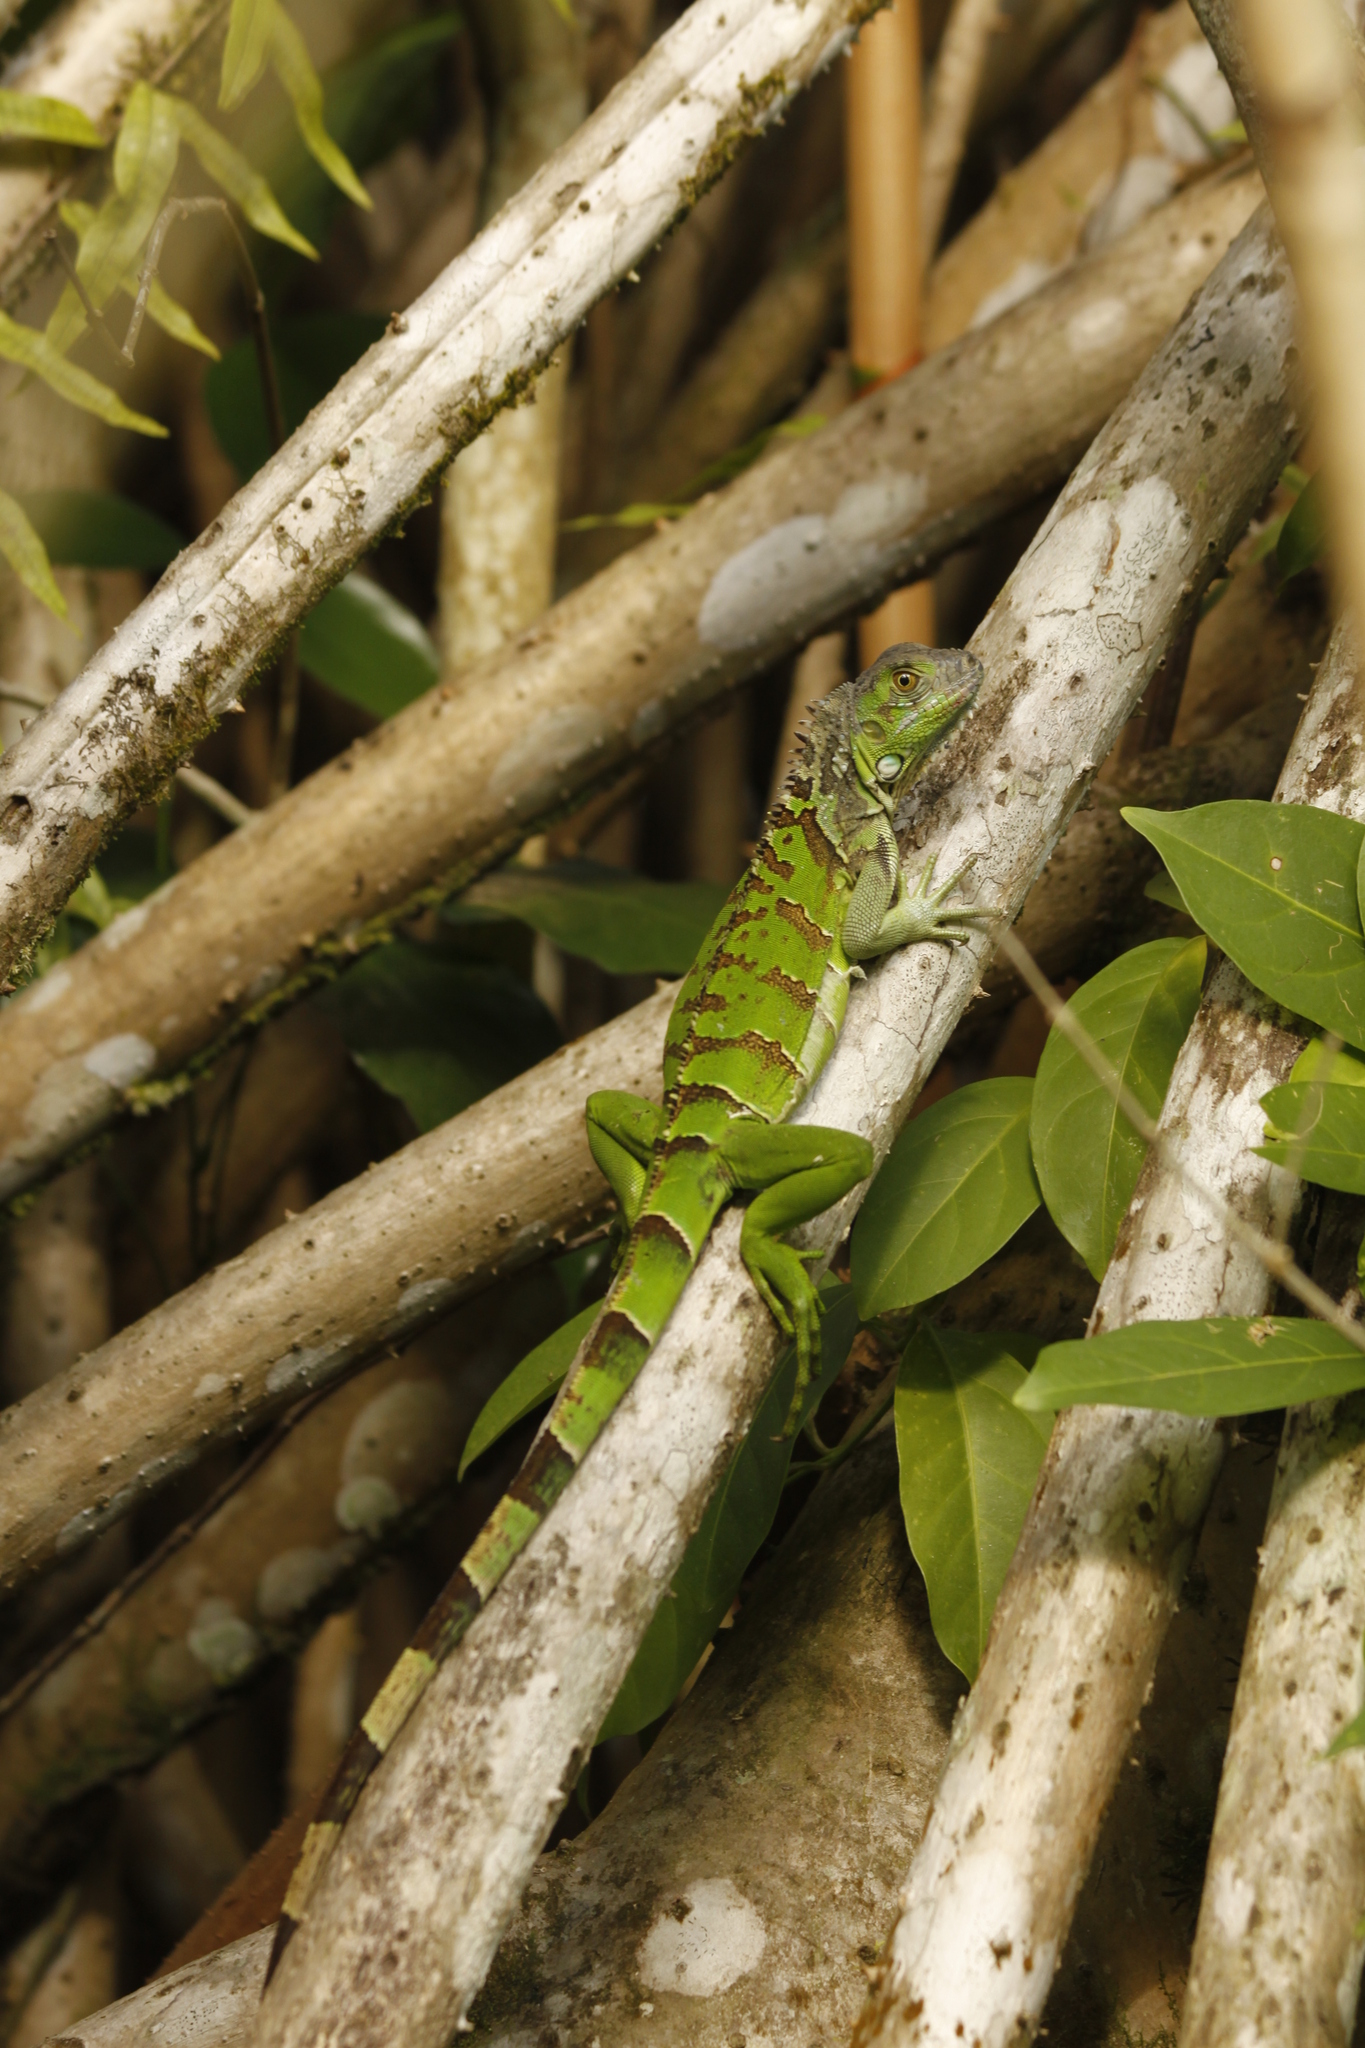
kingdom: Animalia
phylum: Chordata
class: Squamata
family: Iguanidae
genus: Iguana
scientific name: Iguana iguana
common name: Green iguana
